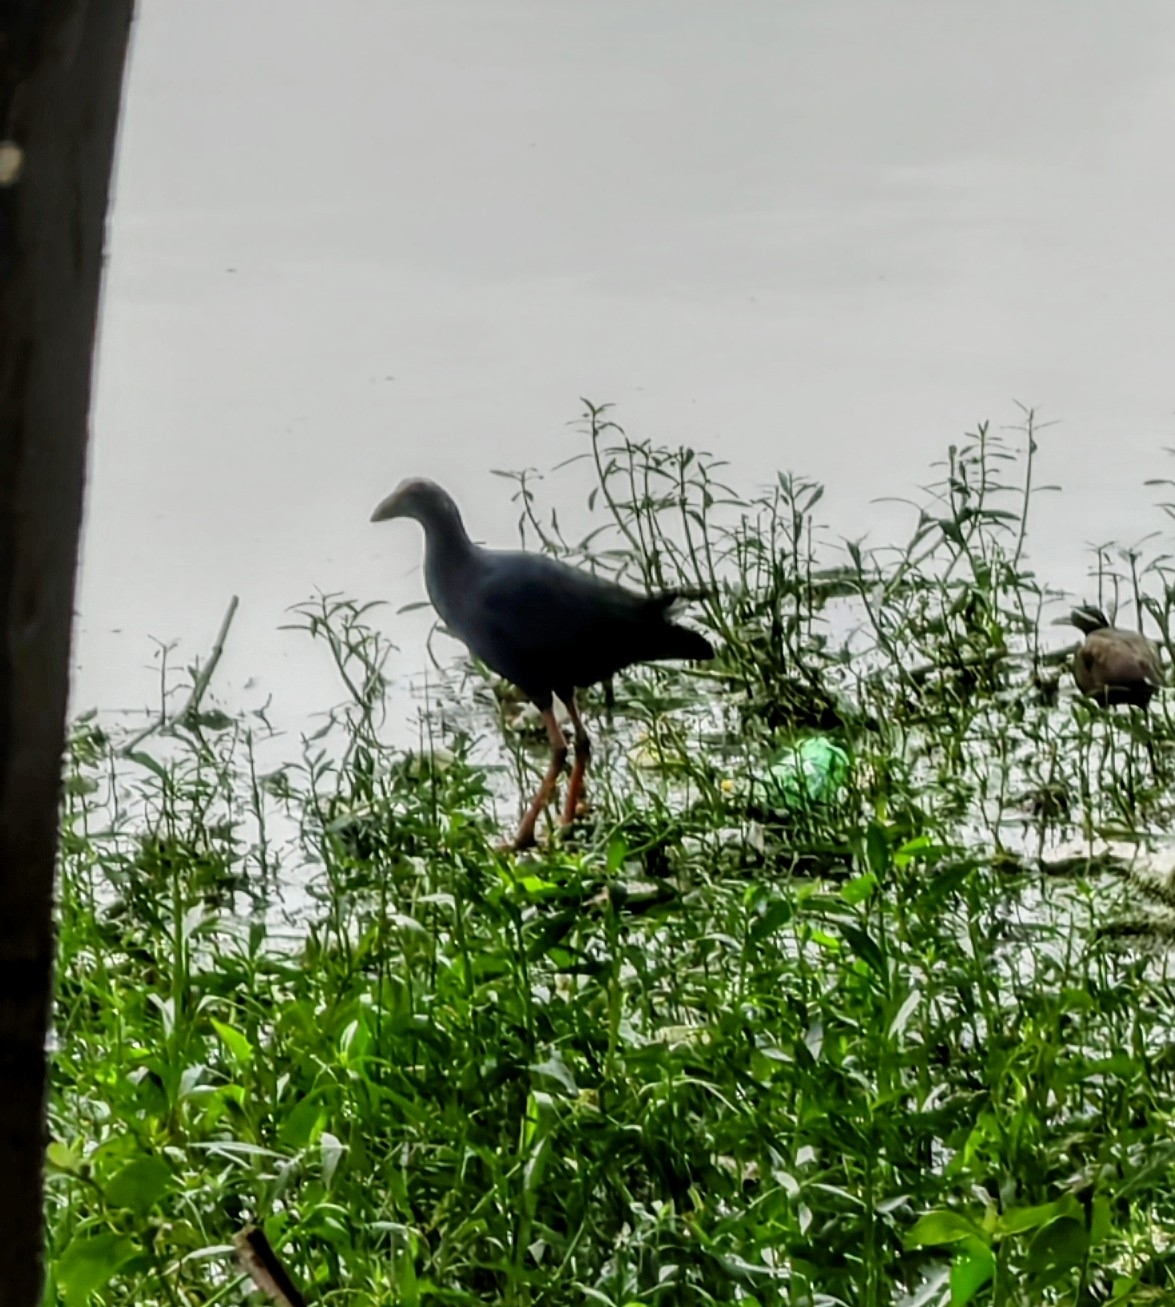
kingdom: Animalia
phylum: Chordata
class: Aves
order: Gruiformes
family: Rallidae
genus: Porphyrio
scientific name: Porphyrio porphyrio
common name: Purple swamphen
